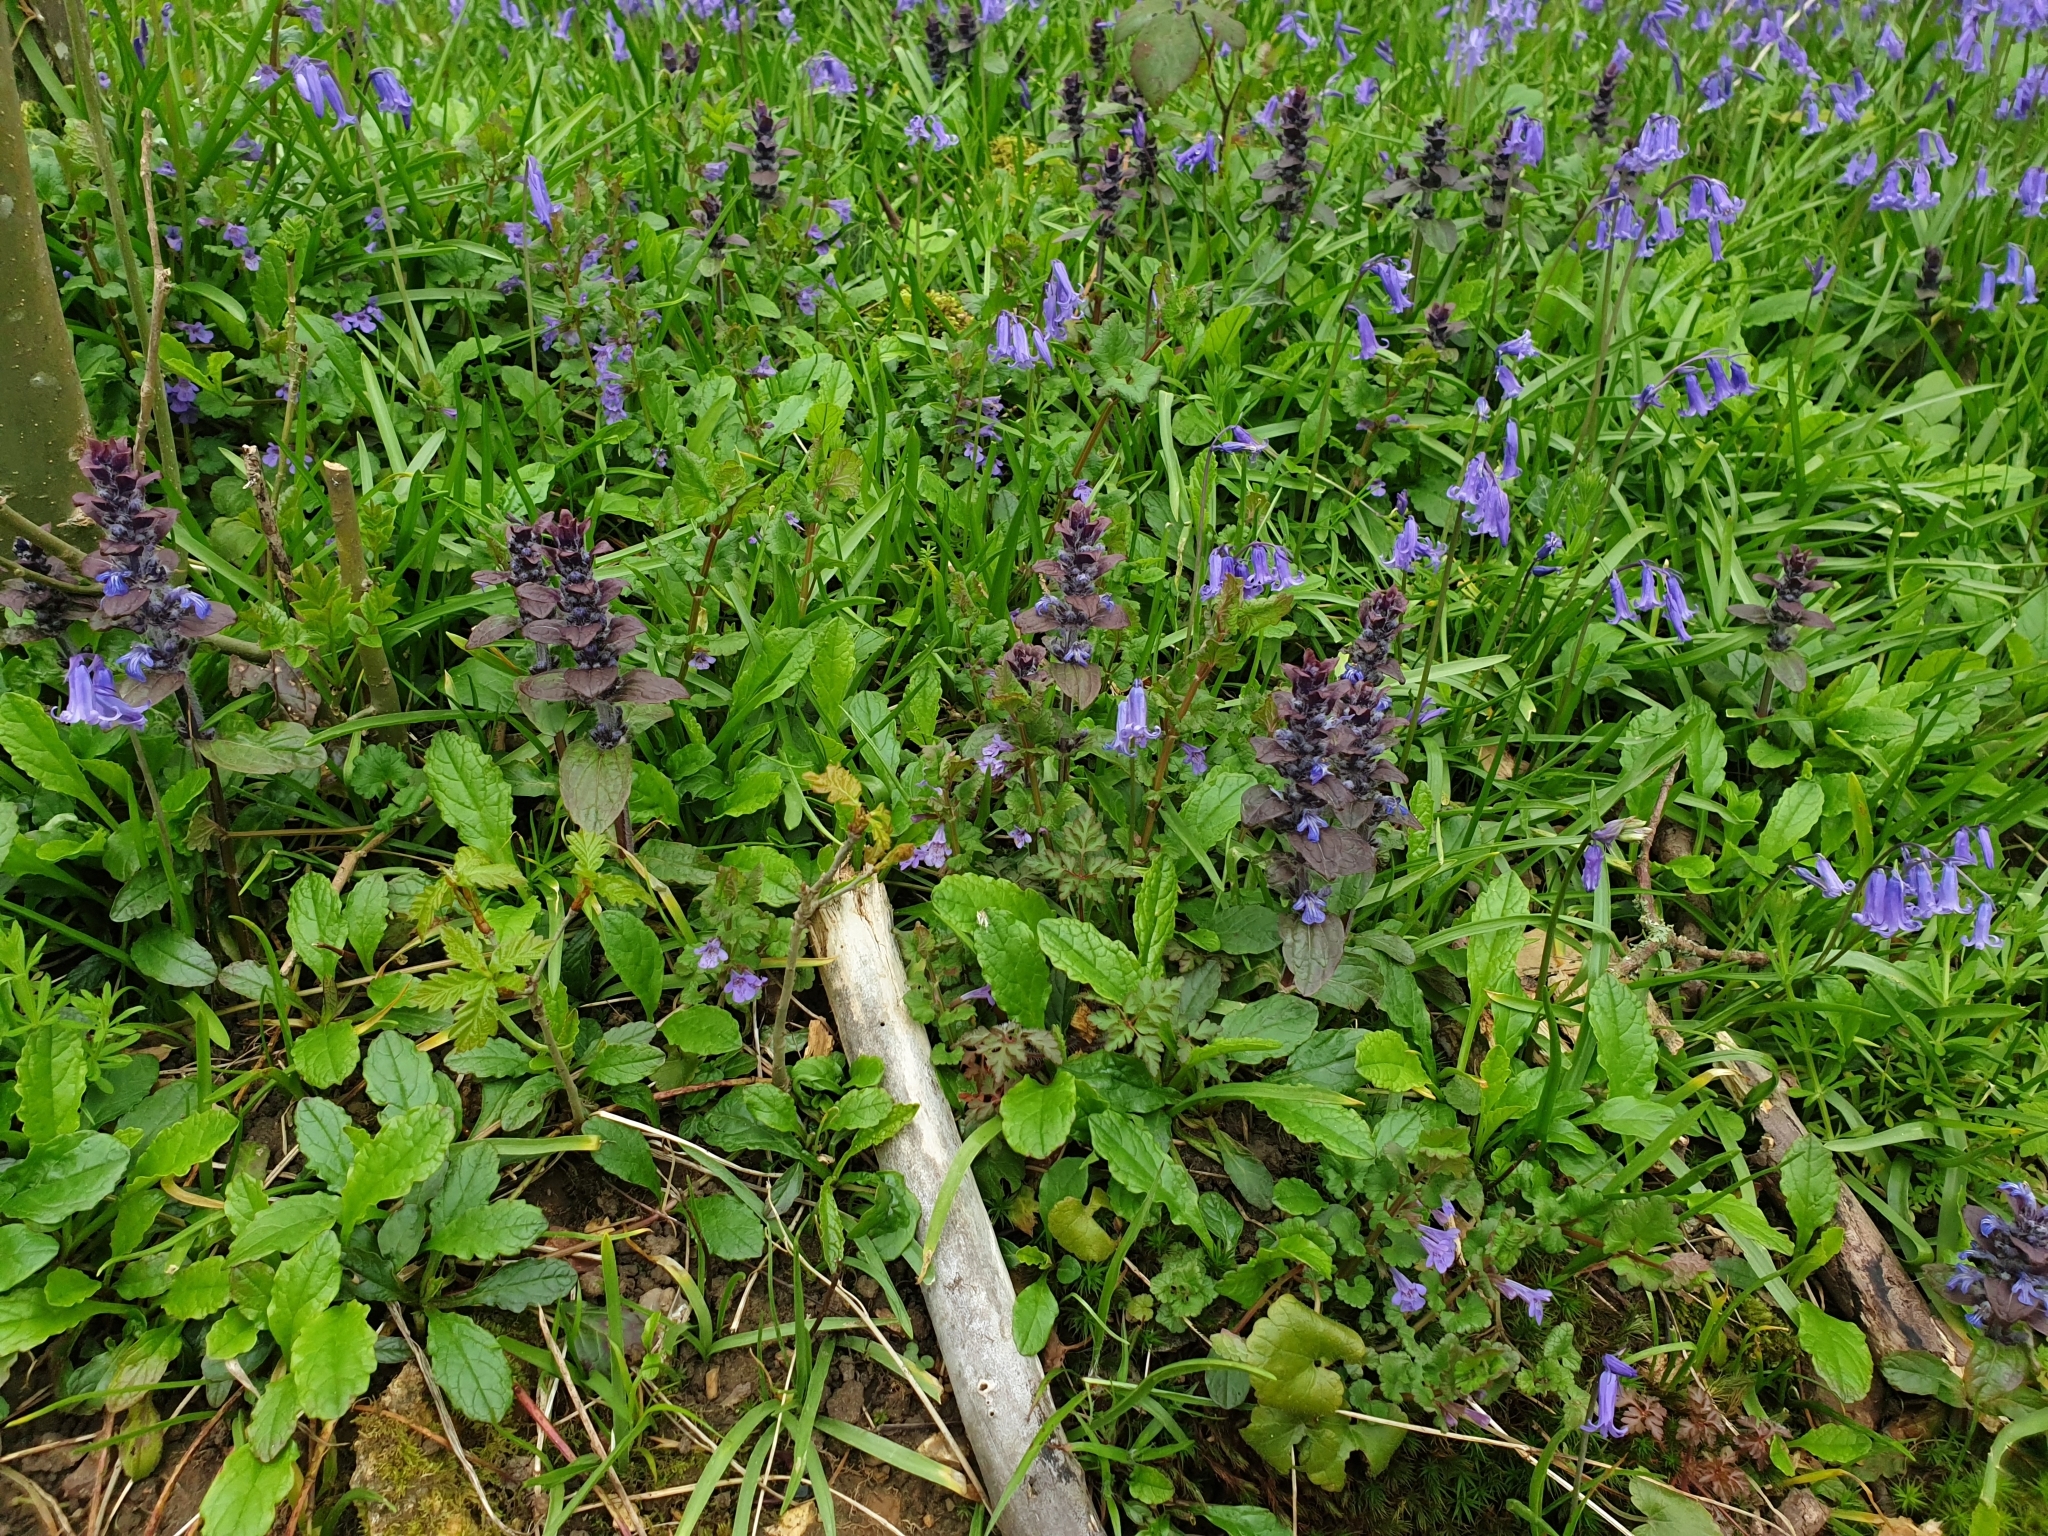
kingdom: Plantae
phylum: Tracheophyta
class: Magnoliopsida
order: Lamiales
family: Lamiaceae
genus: Ajuga
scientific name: Ajuga reptans
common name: Bugle
